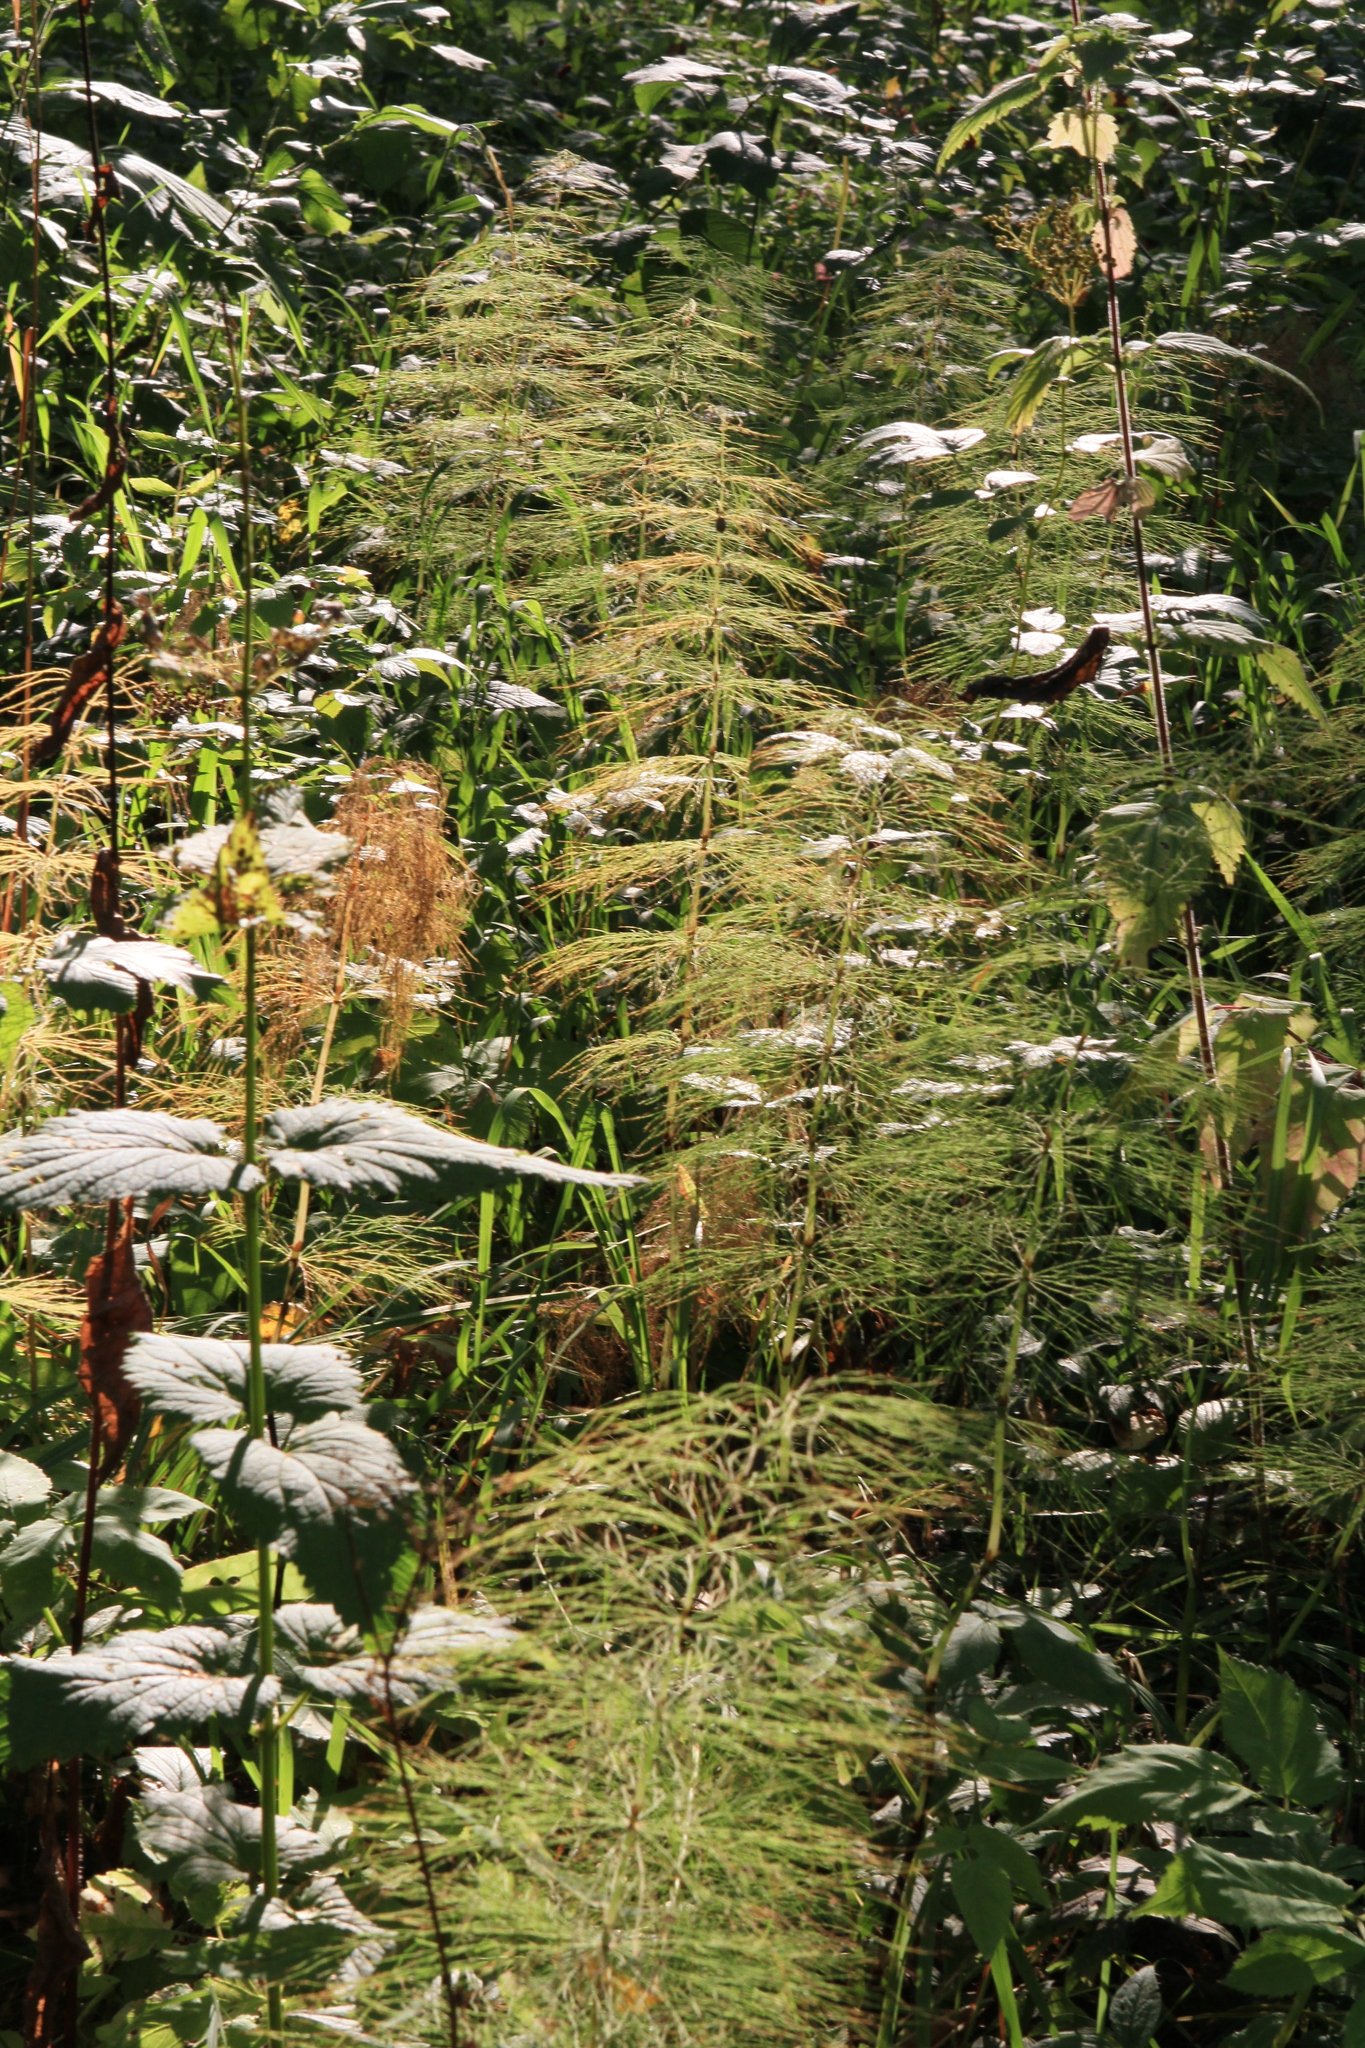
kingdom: Plantae
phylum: Tracheophyta
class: Polypodiopsida
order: Equisetales
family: Equisetaceae
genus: Equisetum
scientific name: Equisetum sylvaticum
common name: Wood horsetail
